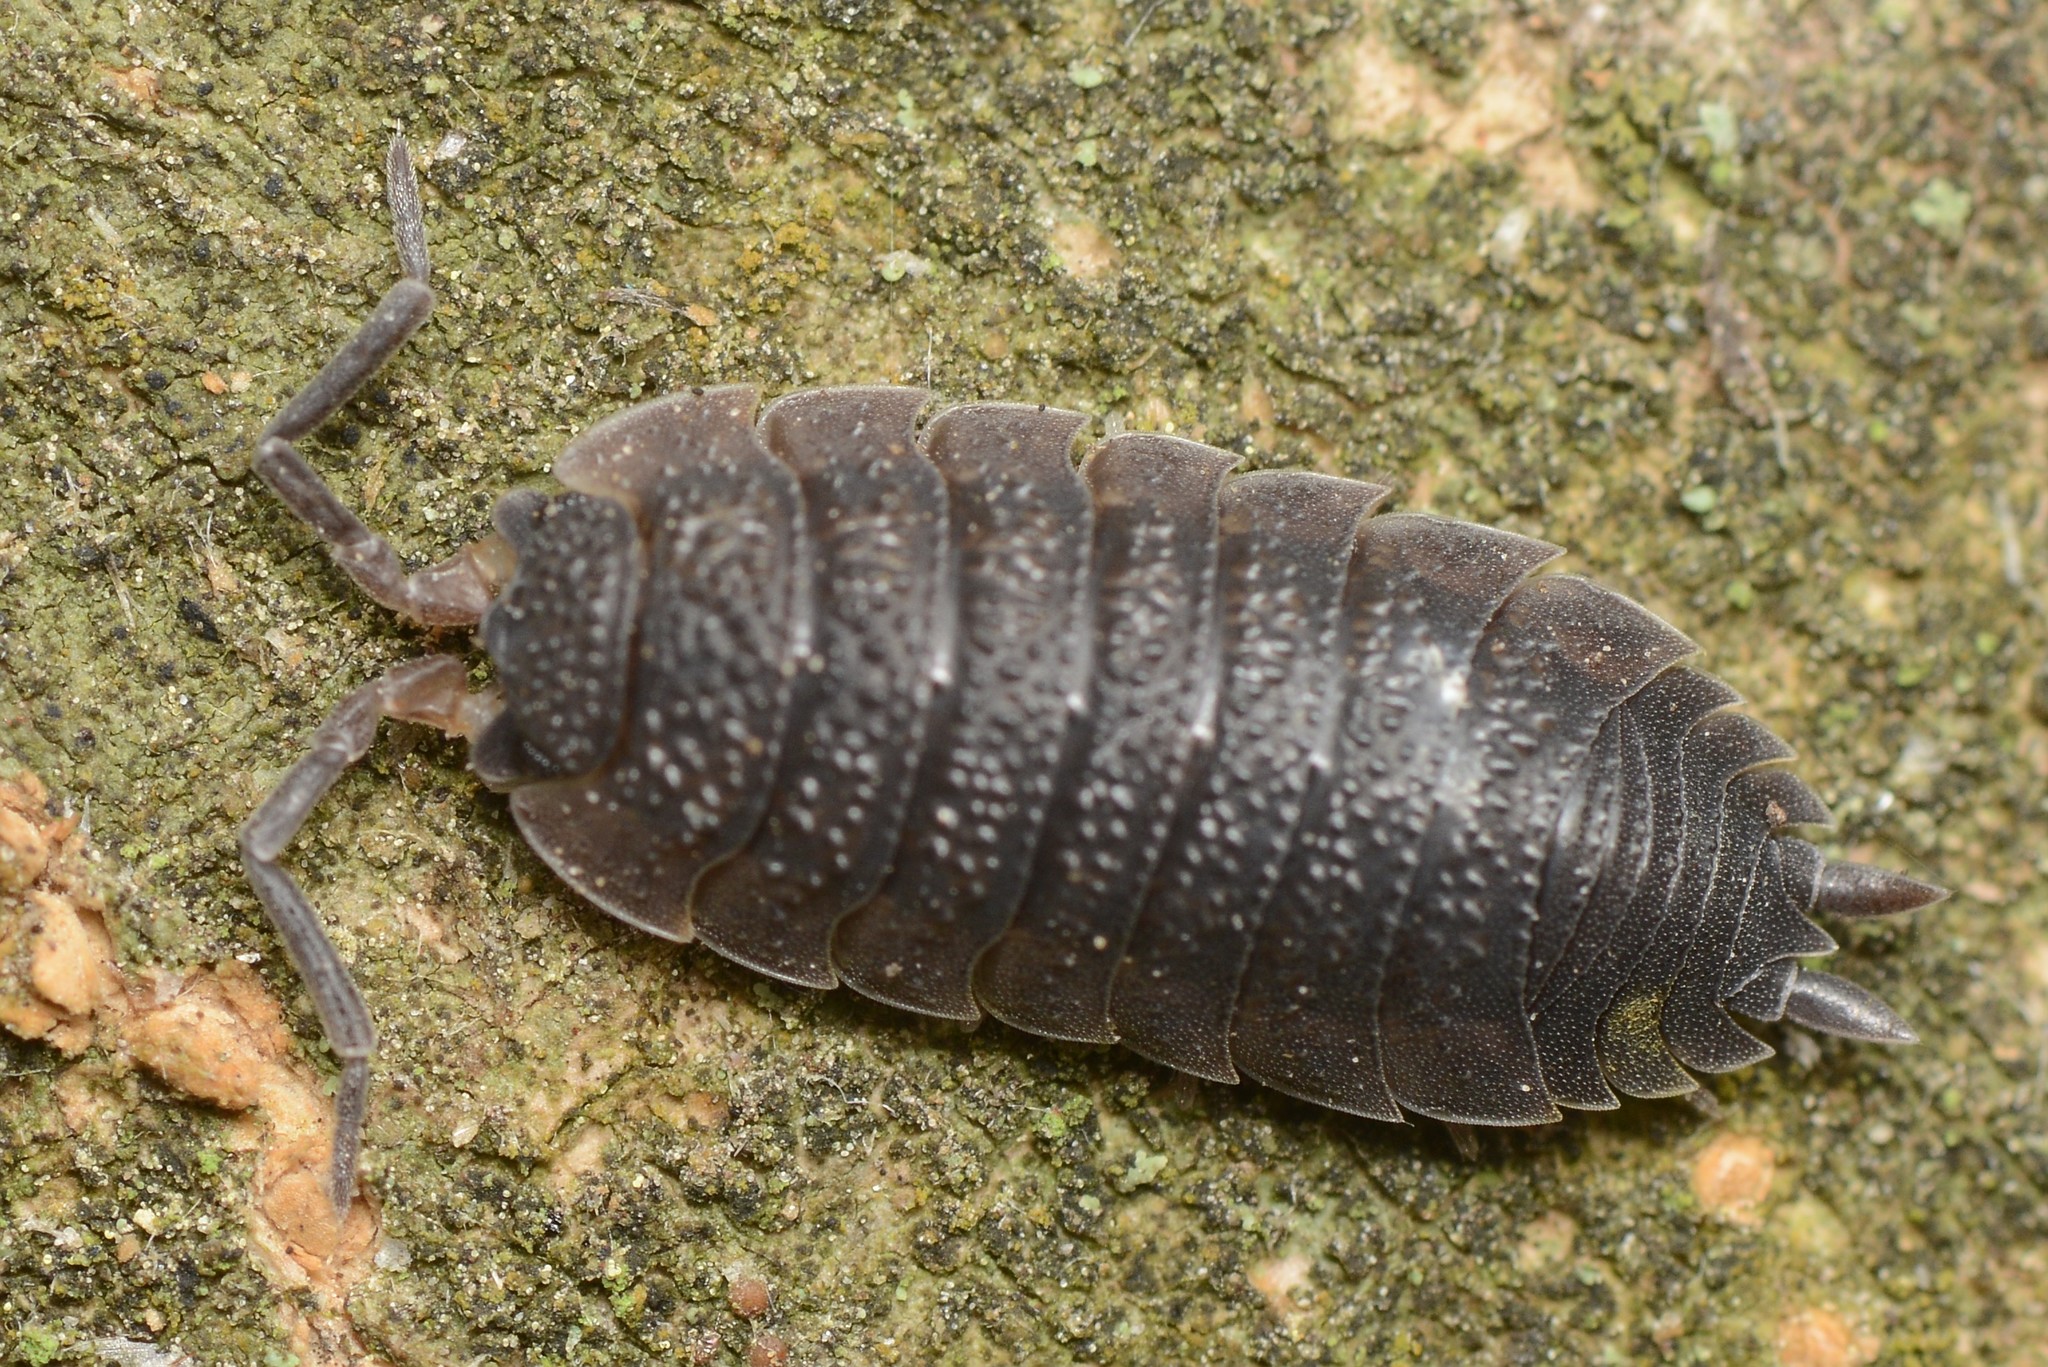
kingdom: Animalia
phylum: Arthropoda
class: Malacostraca
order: Isopoda
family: Porcellionidae
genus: Porcellio
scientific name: Porcellio scaber
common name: Common rough woodlouse
